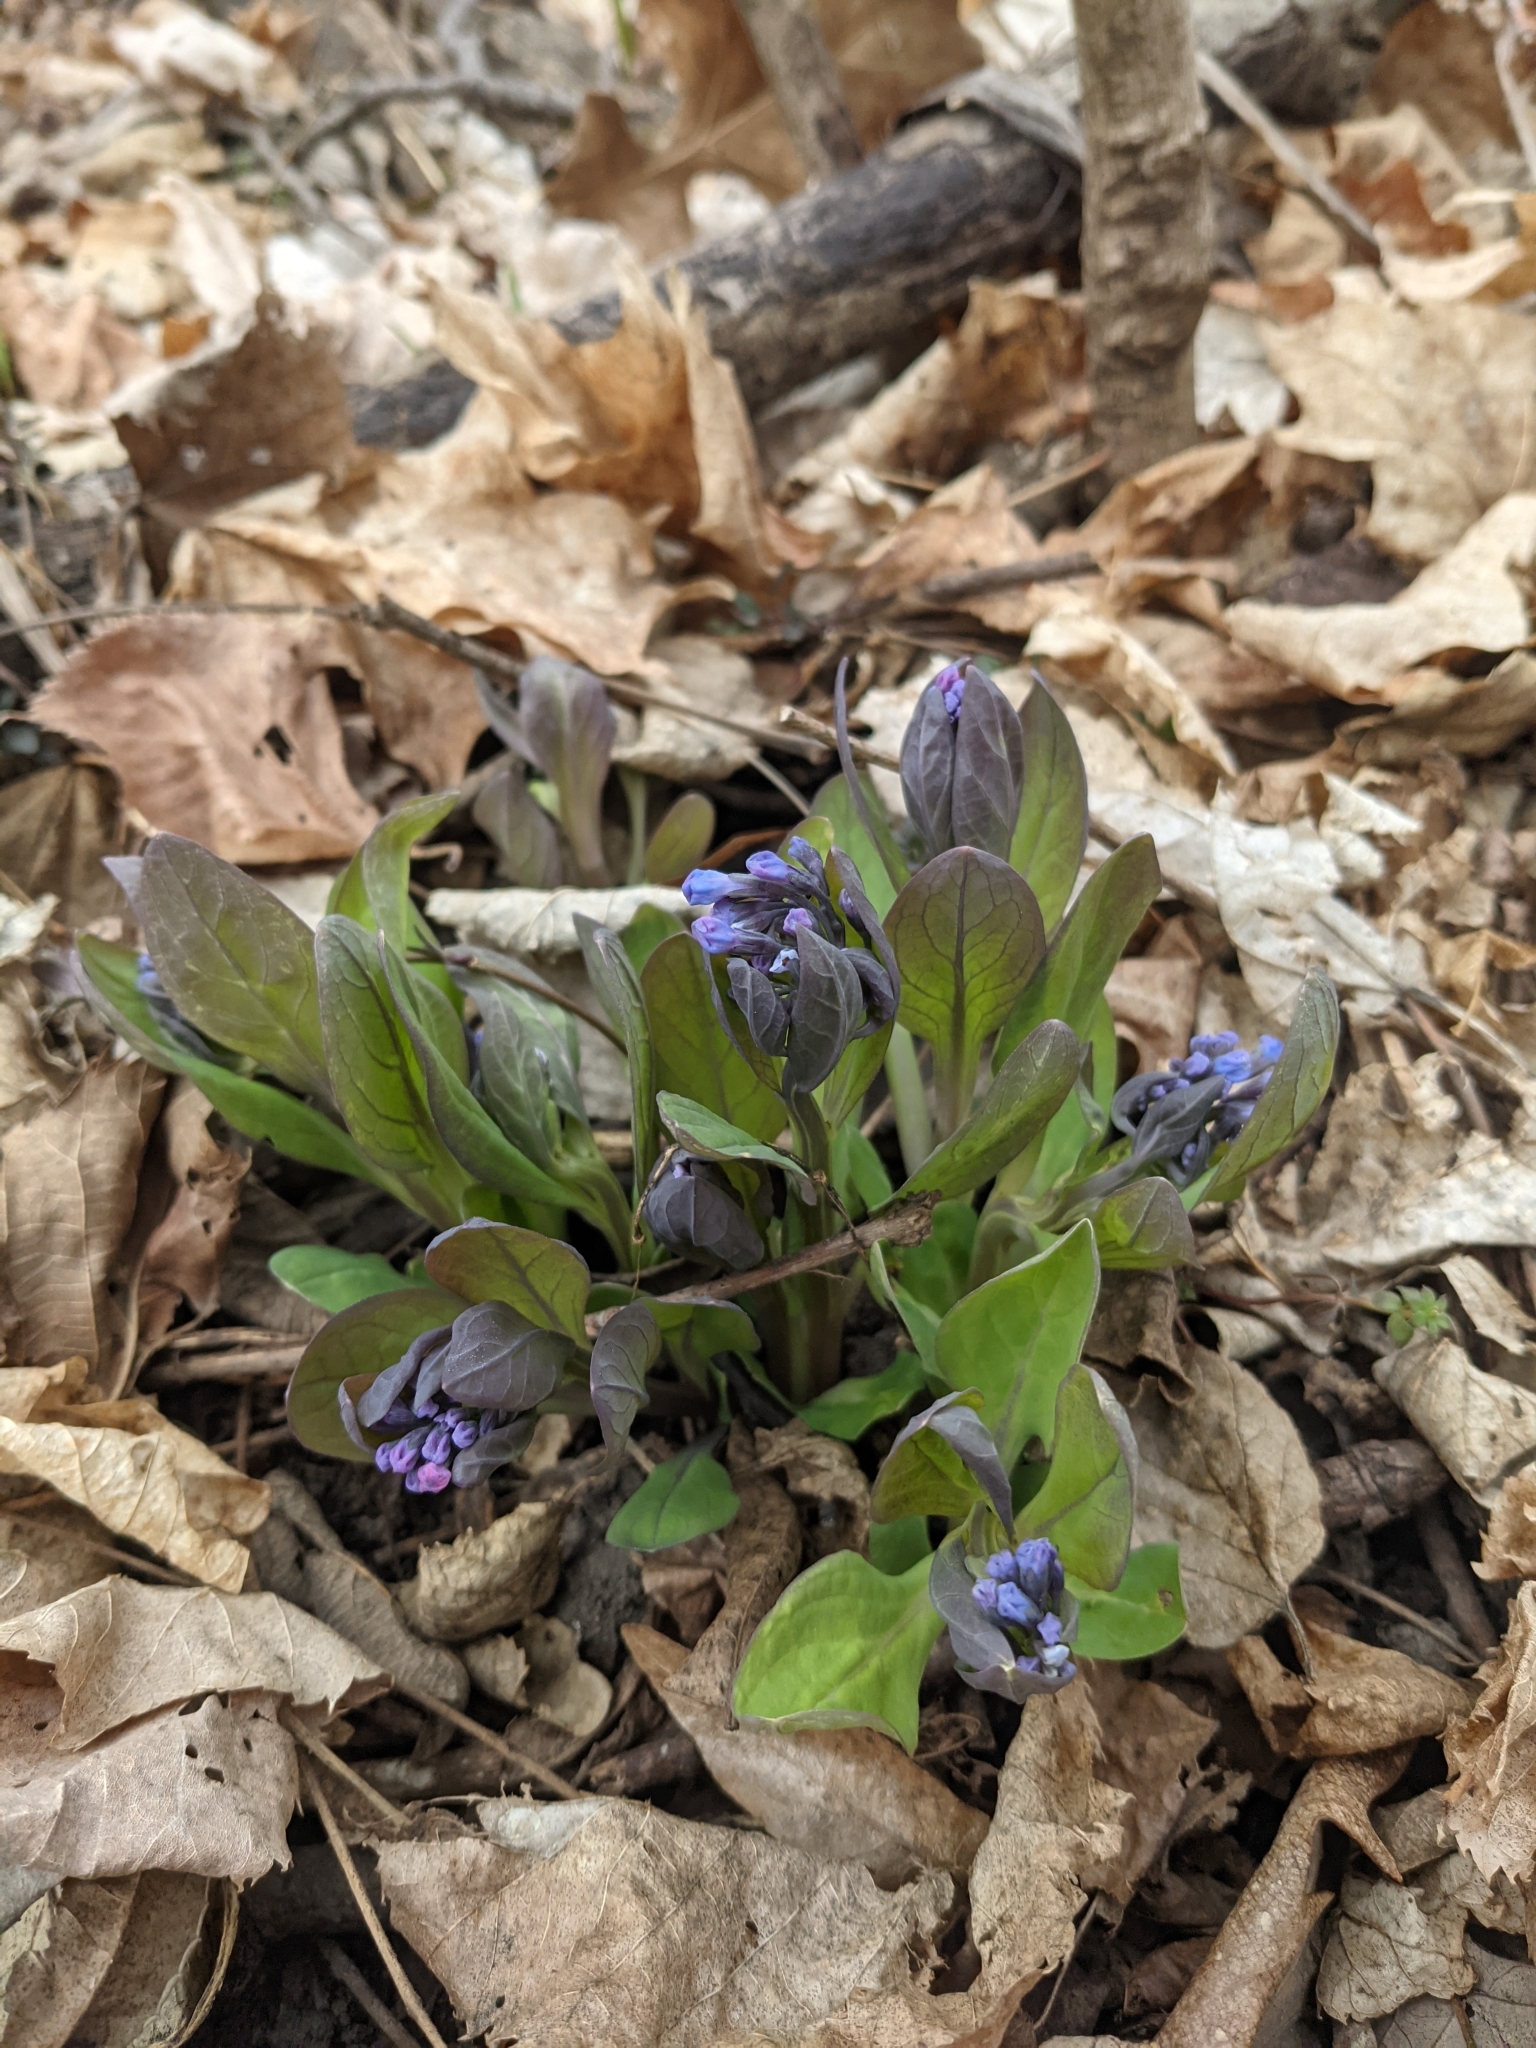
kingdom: Plantae
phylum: Tracheophyta
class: Magnoliopsida
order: Boraginales
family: Boraginaceae
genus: Mertensia
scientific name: Mertensia virginica
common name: Virginia bluebells
